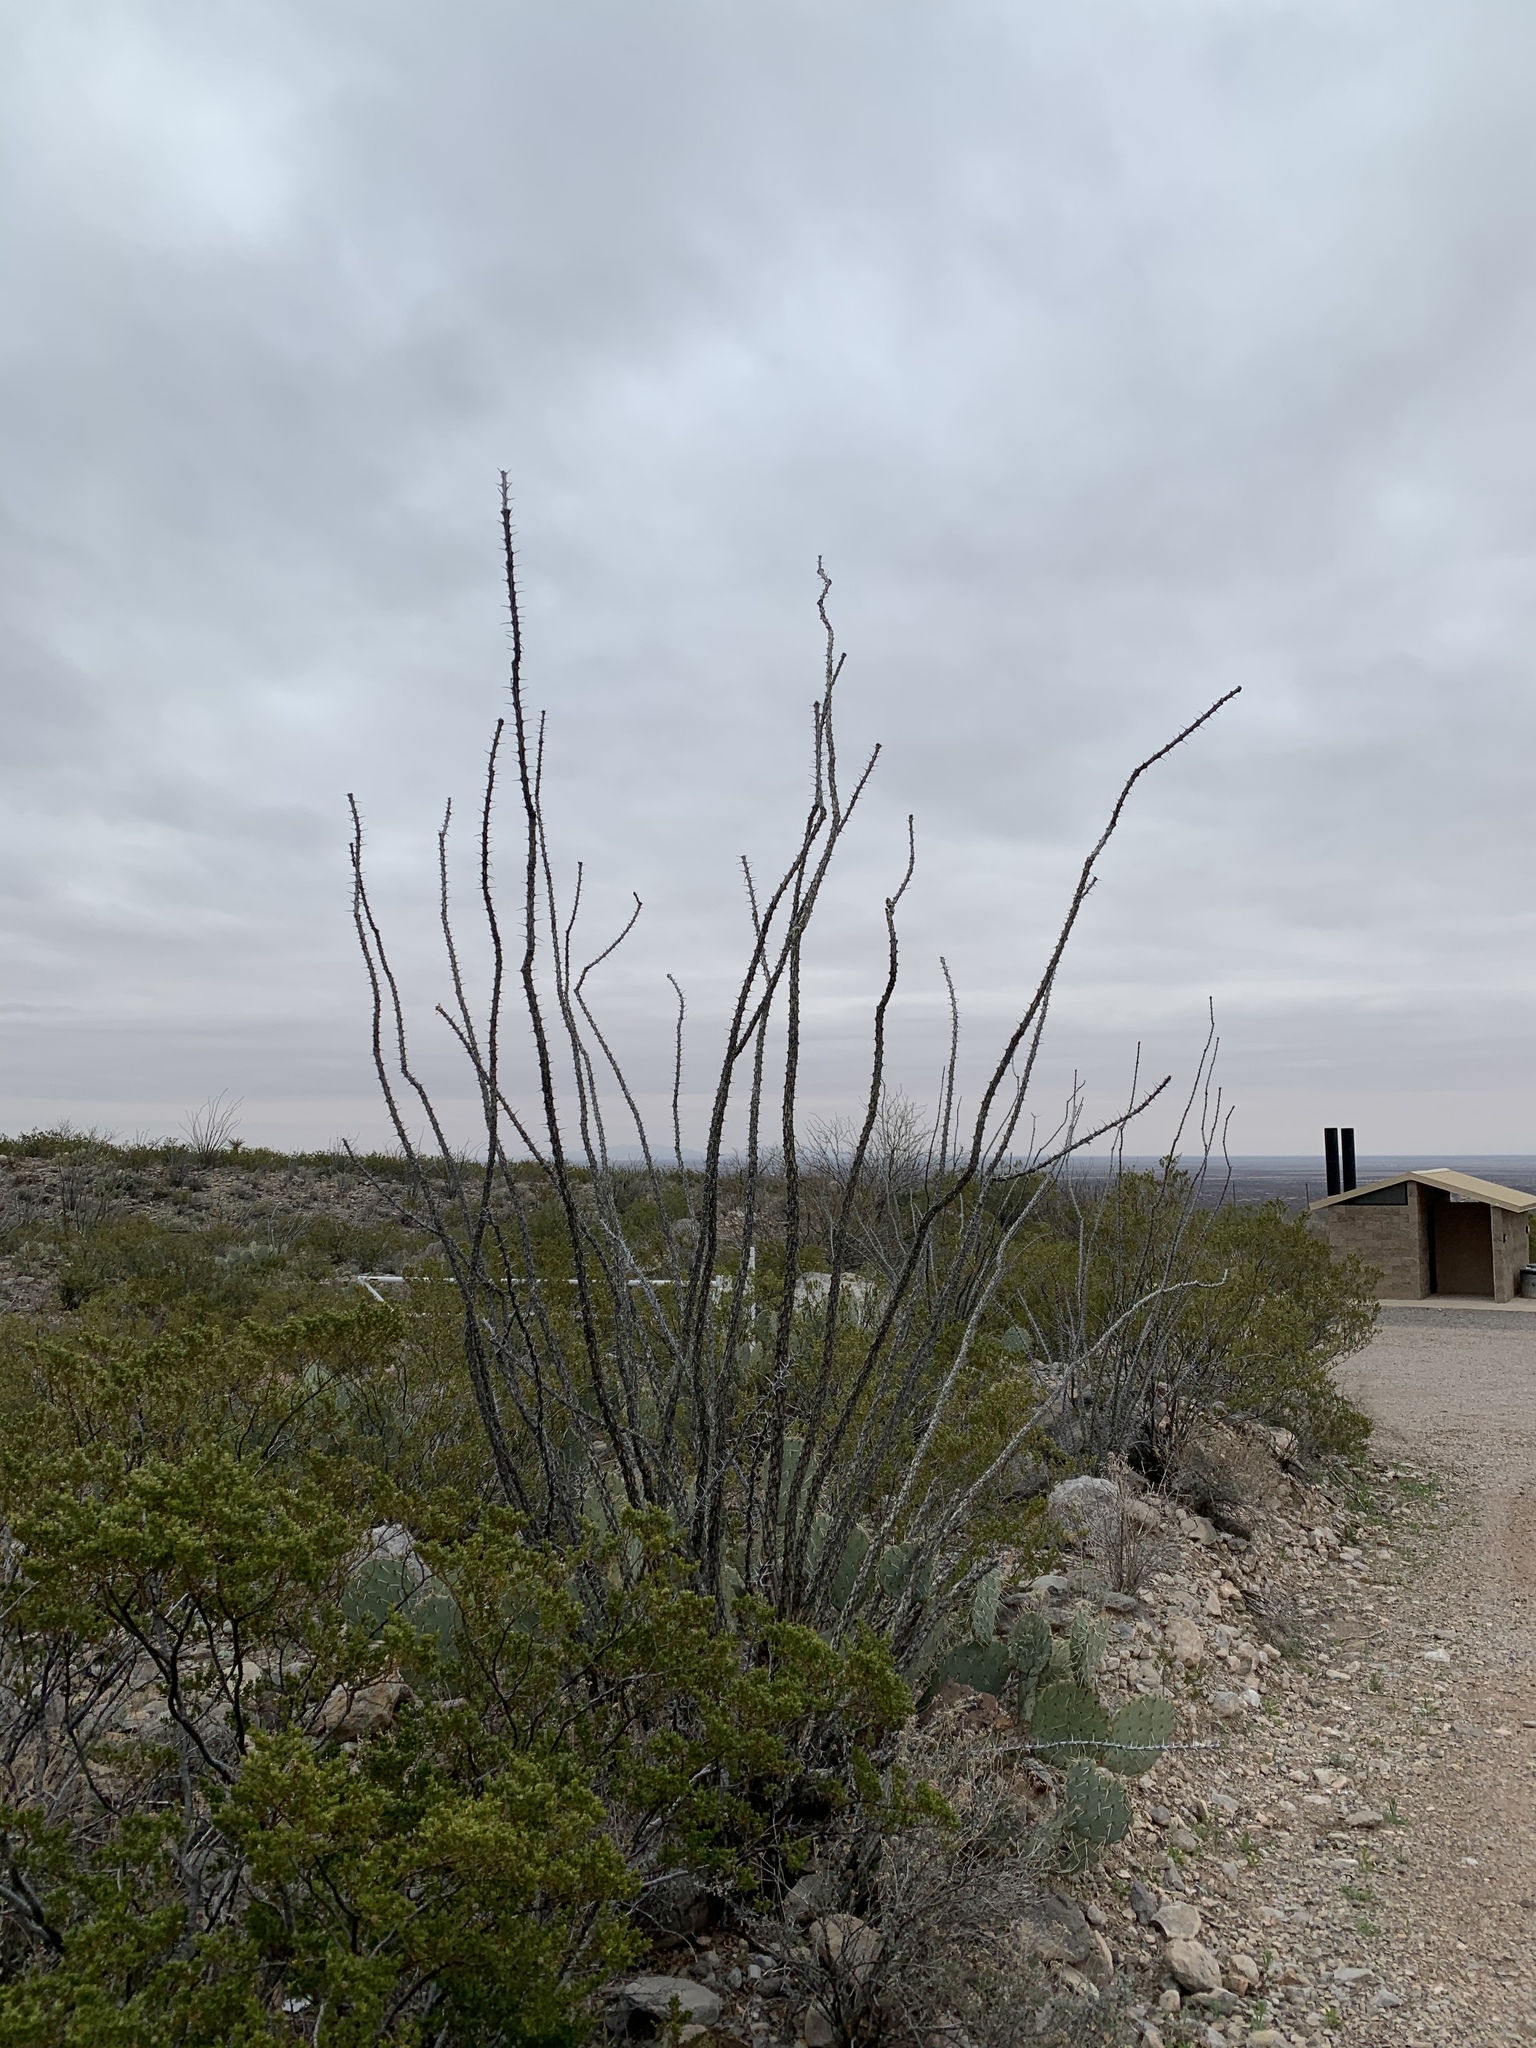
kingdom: Plantae
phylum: Tracheophyta
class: Magnoliopsida
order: Ericales
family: Fouquieriaceae
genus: Fouquieria
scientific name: Fouquieria splendens
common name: Vine-cactus
